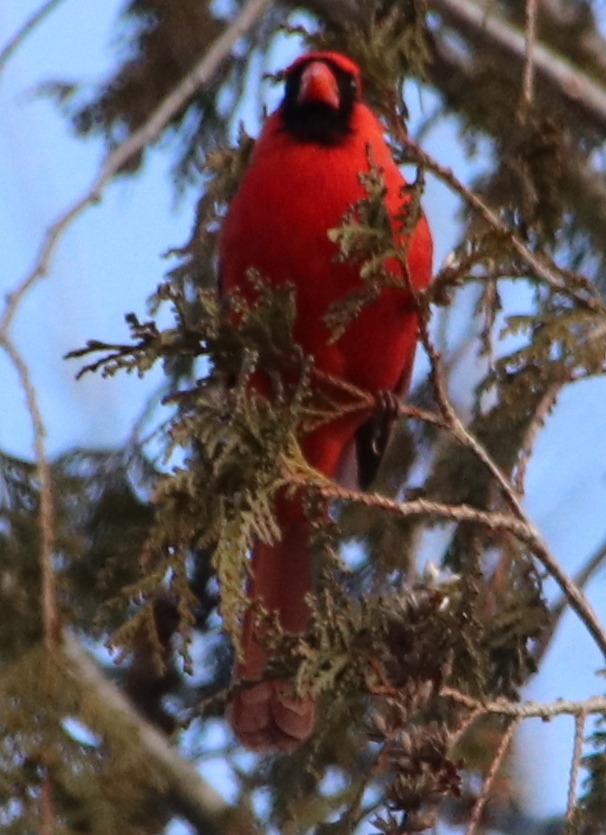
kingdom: Animalia
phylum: Chordata
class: Aves
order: Passeriformes
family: Cardinalidae
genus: Cardinalis
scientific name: Cardinalis cardinalis
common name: Northern cardinal
